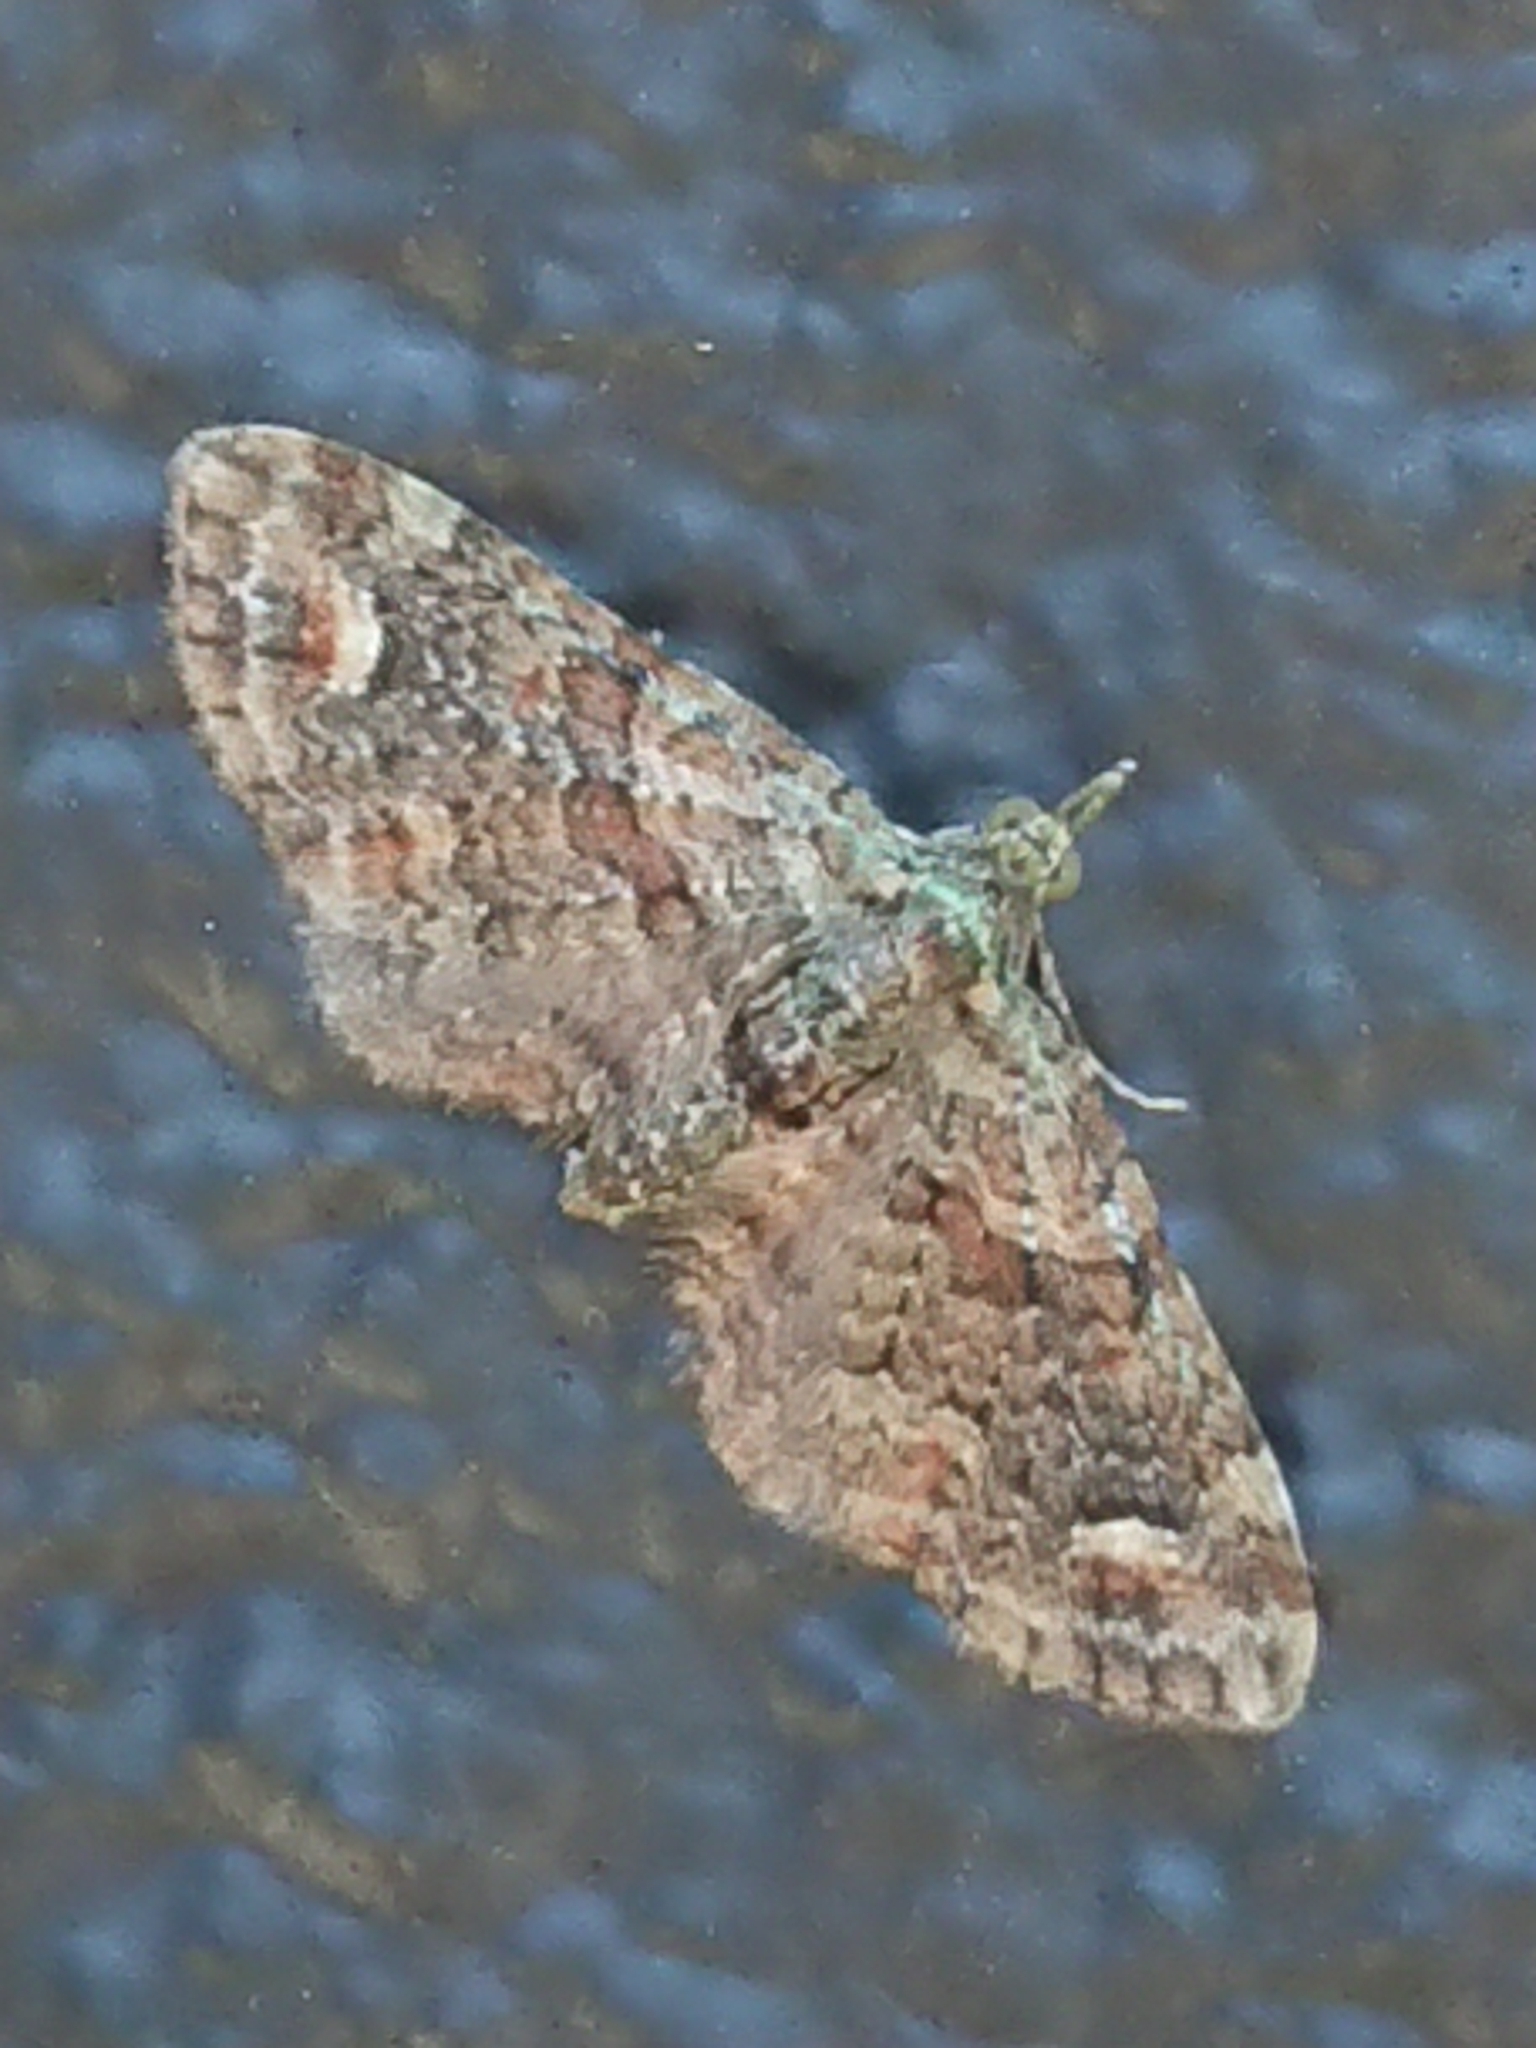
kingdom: Animalia
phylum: Arthropoda
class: Insecta
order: Lepidoptera
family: Geometridae
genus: Idaea
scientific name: Idaea mutanda
